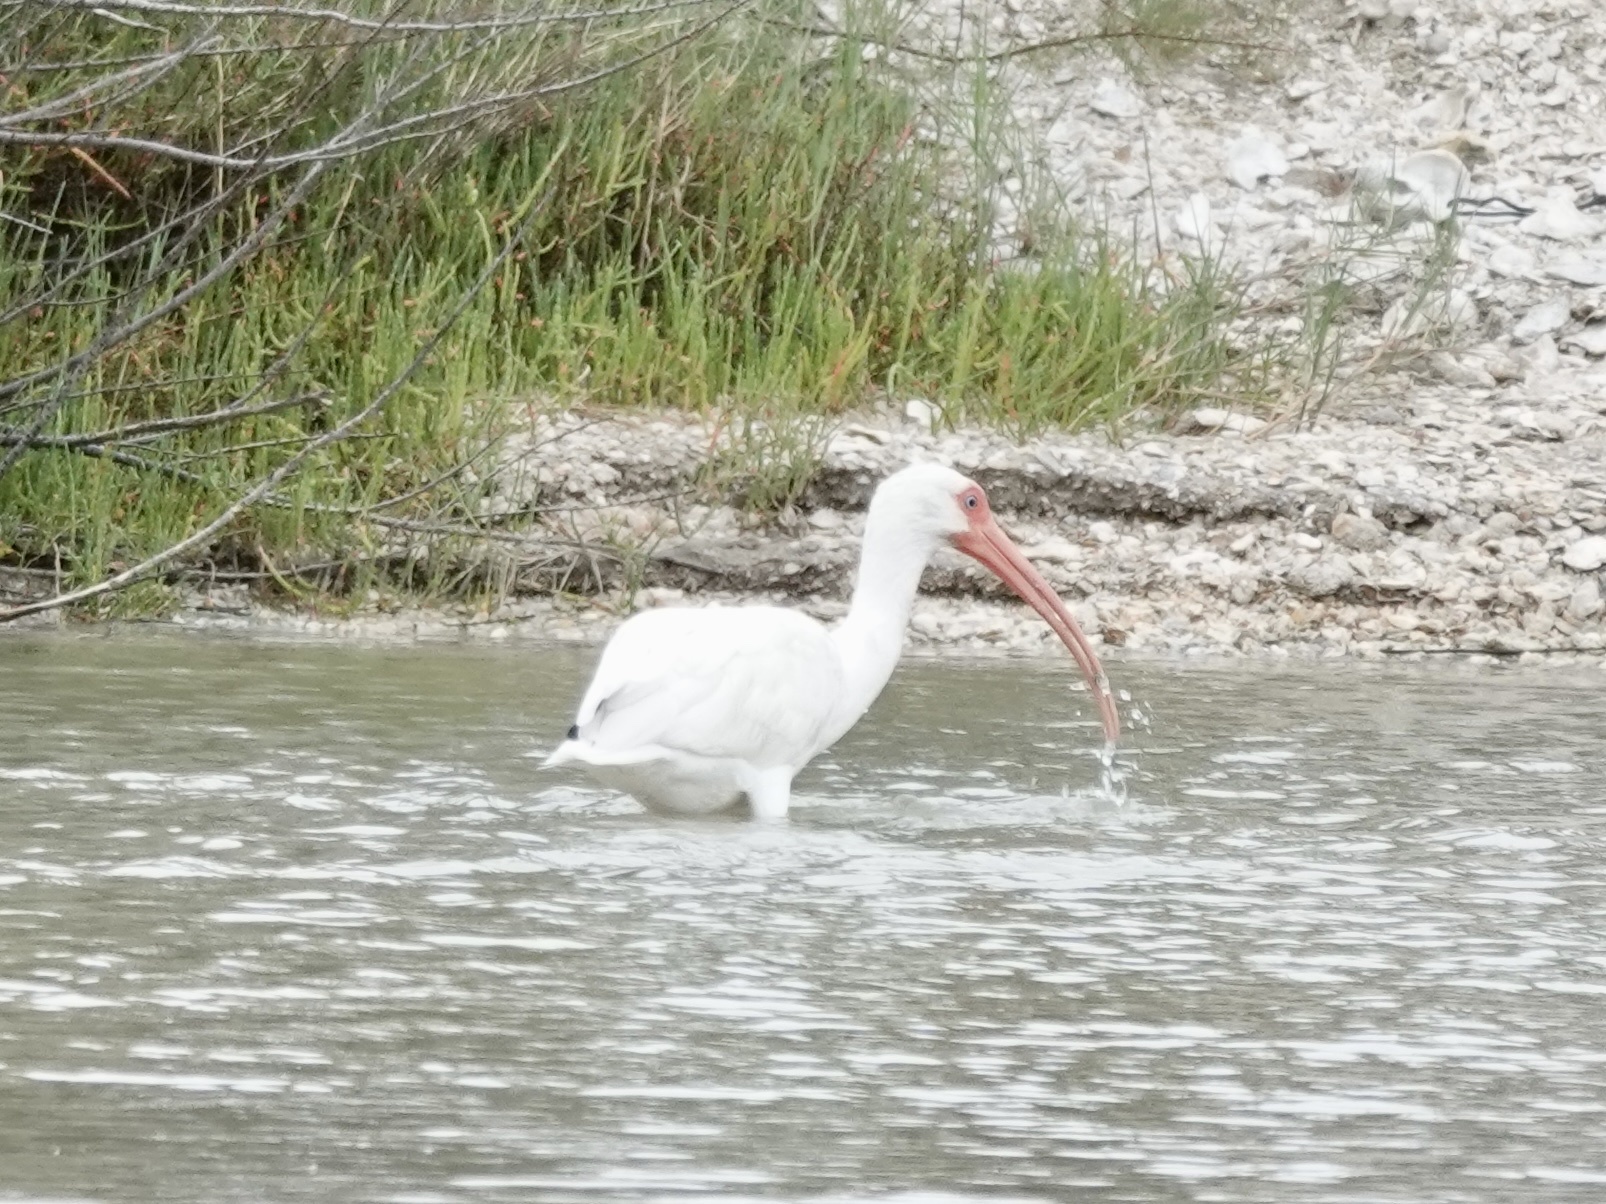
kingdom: Animalia
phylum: Chordata
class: Aves
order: Pelecaniformes
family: Threskiornithidae
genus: Eudocimus
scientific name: Eudocimus albus
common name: White ibis
